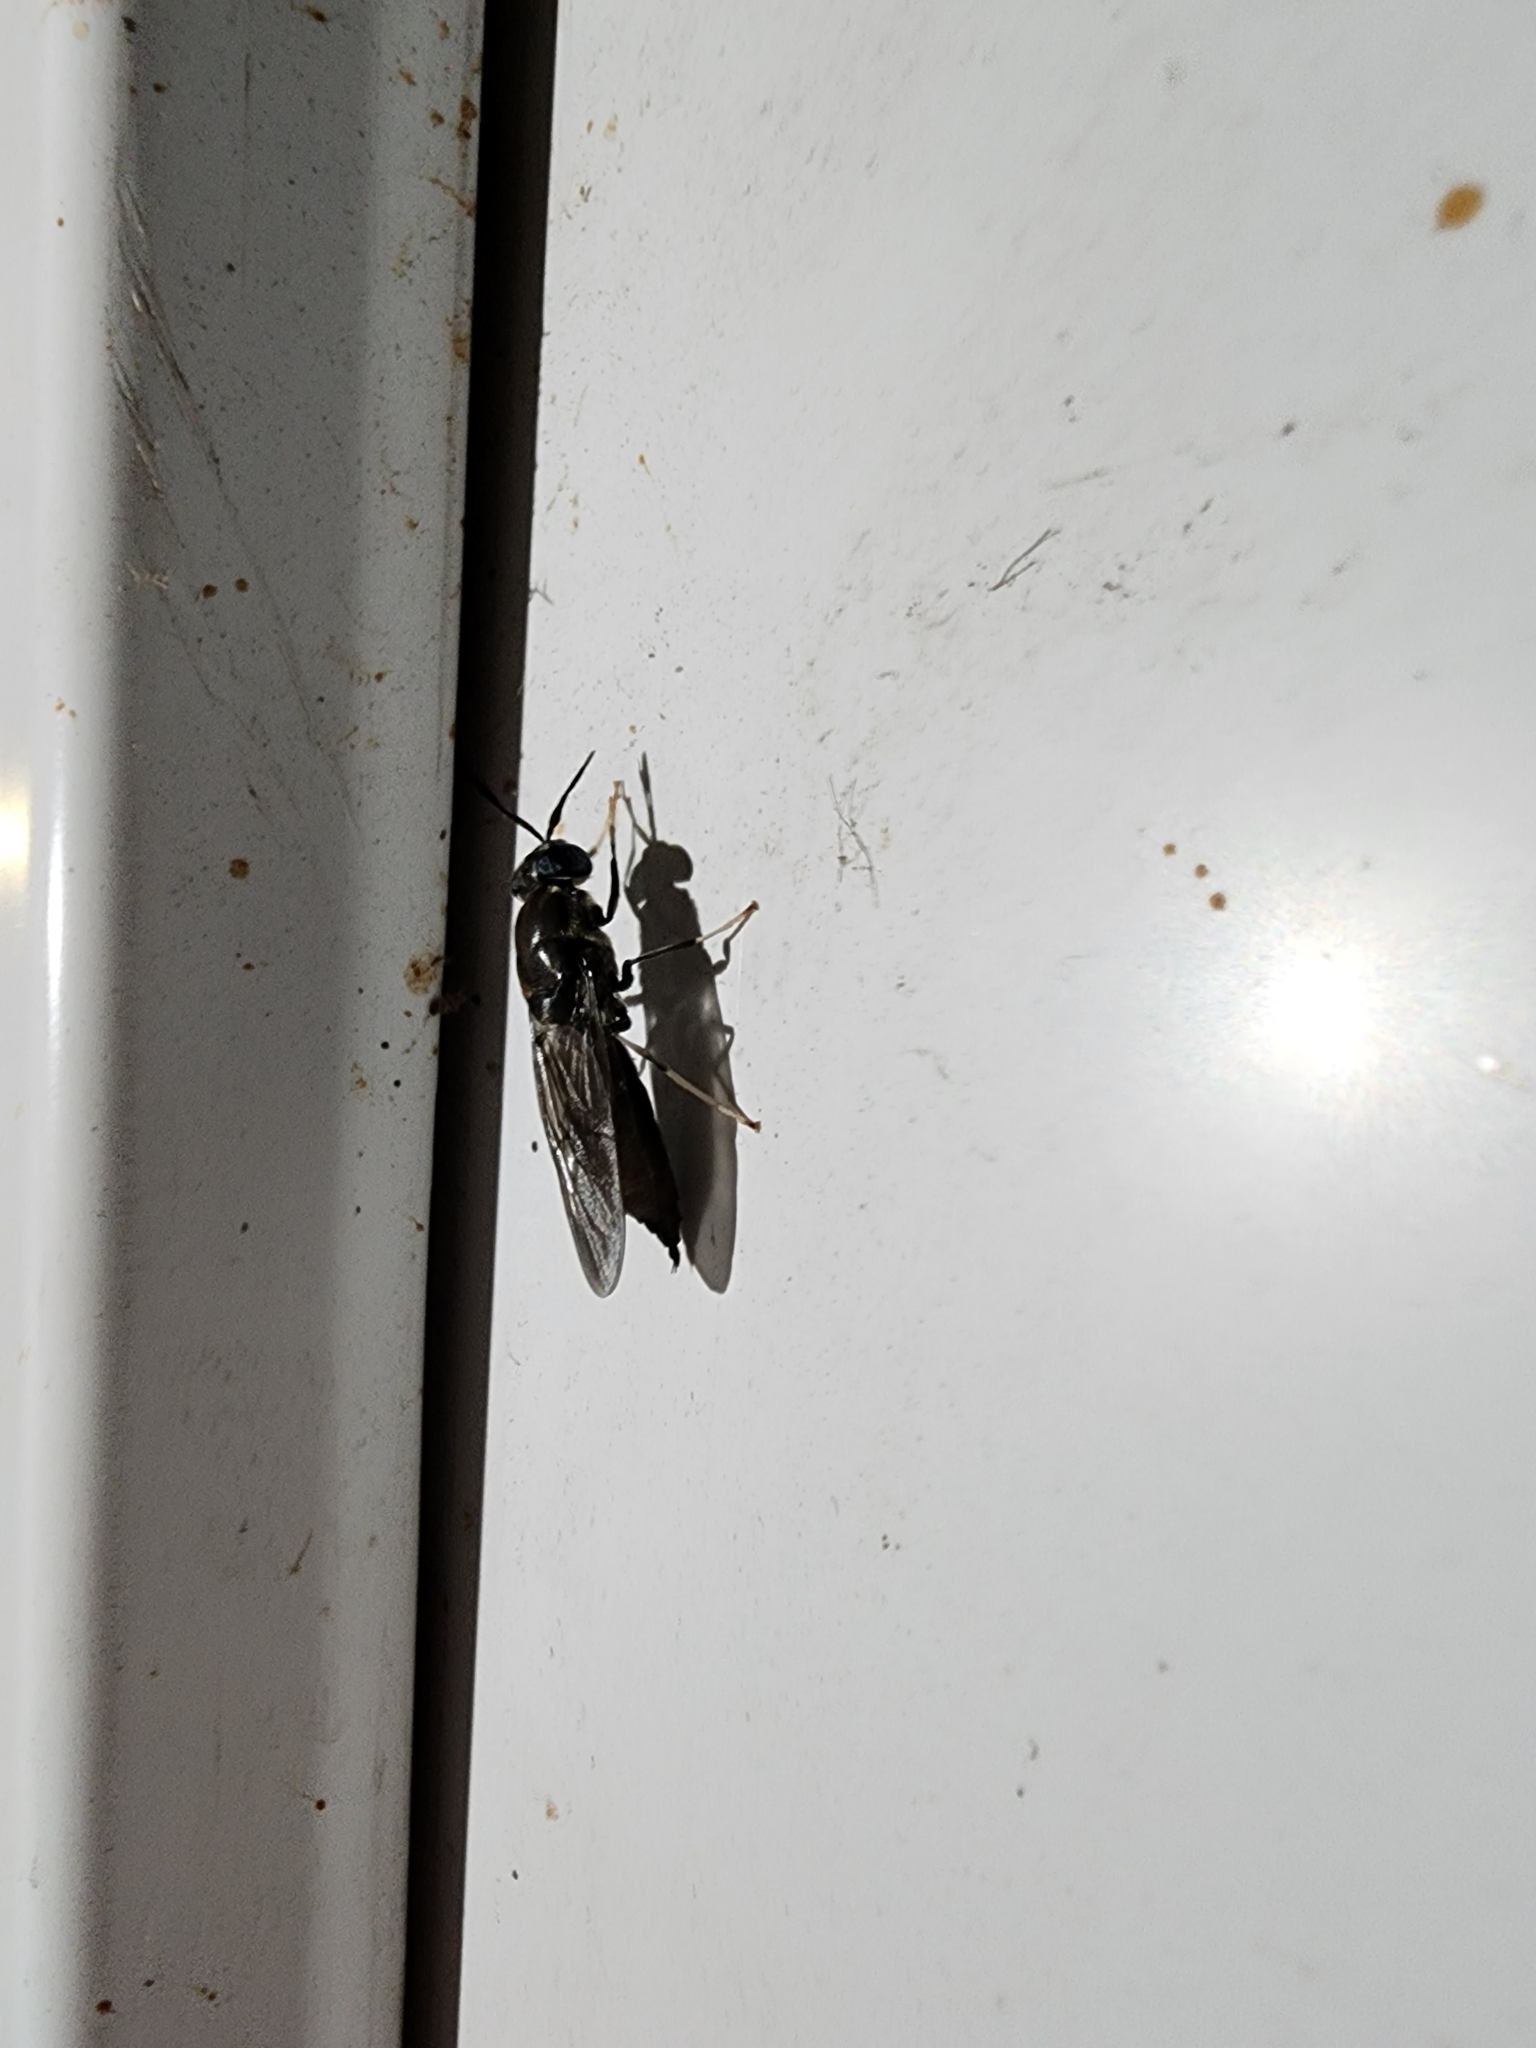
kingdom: Animalia
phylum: Arthropoda
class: Insecta
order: Diptera
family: Stratiomyidae
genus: Hermetia
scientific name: Hermetia illucens
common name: Black soldier fly
